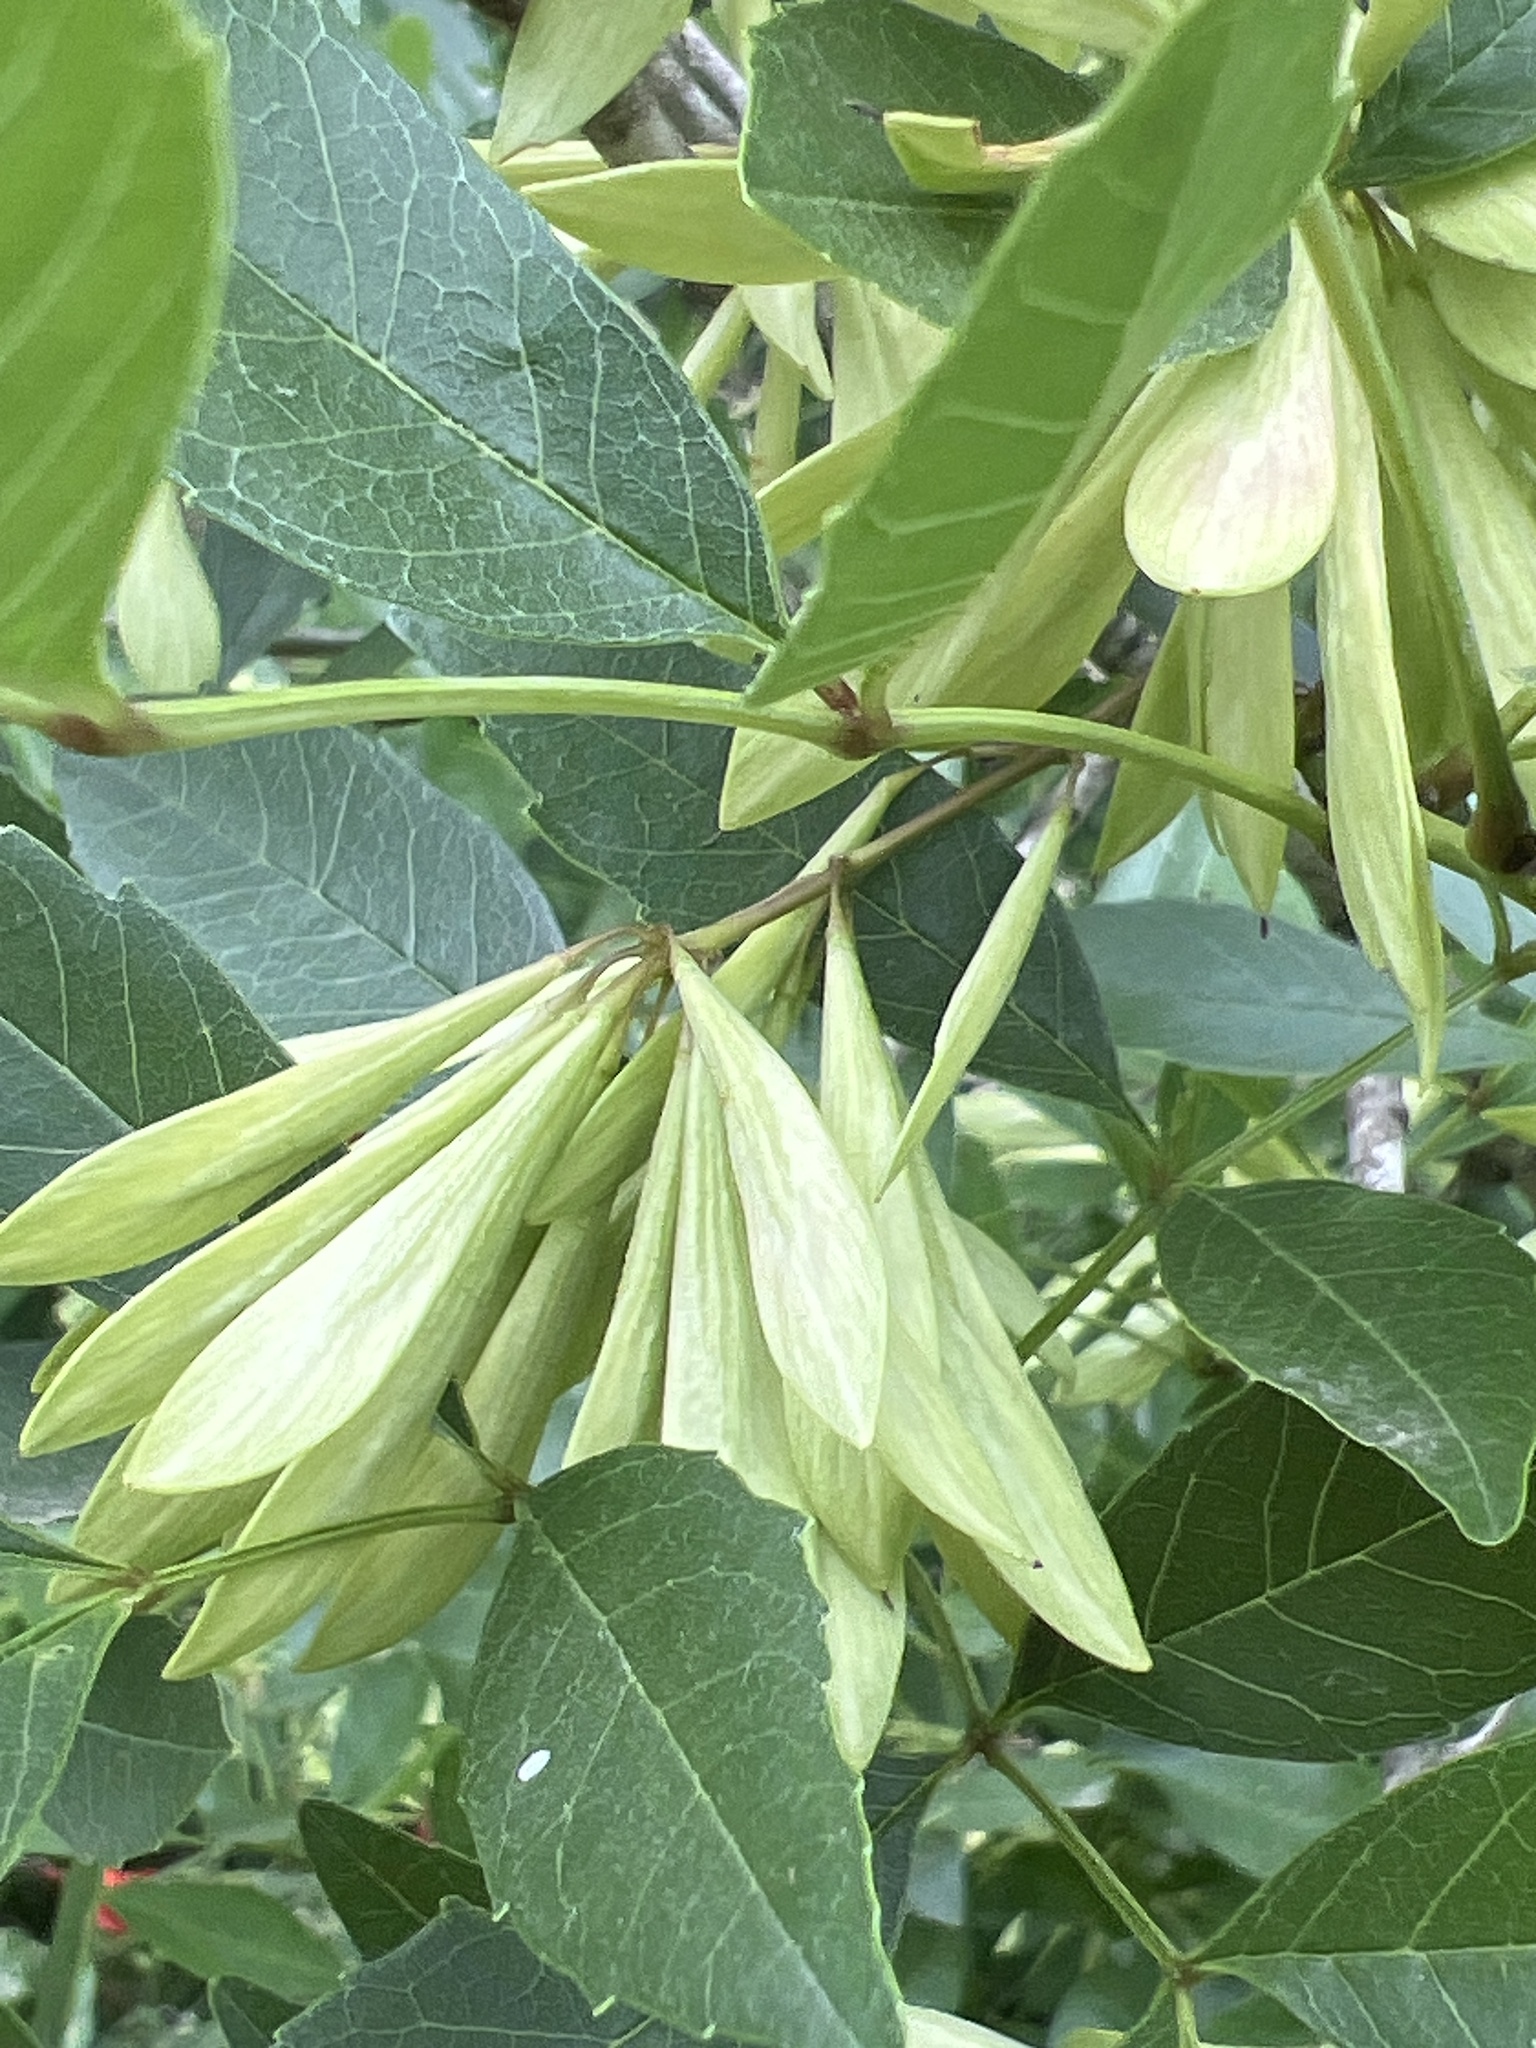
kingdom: Plantae
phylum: Tracheophyta
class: Magnoliopsida
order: Lamiales
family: Oleaceae
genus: Fraxinus
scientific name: Fraxinus berlandieriana
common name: Berlandier ash
